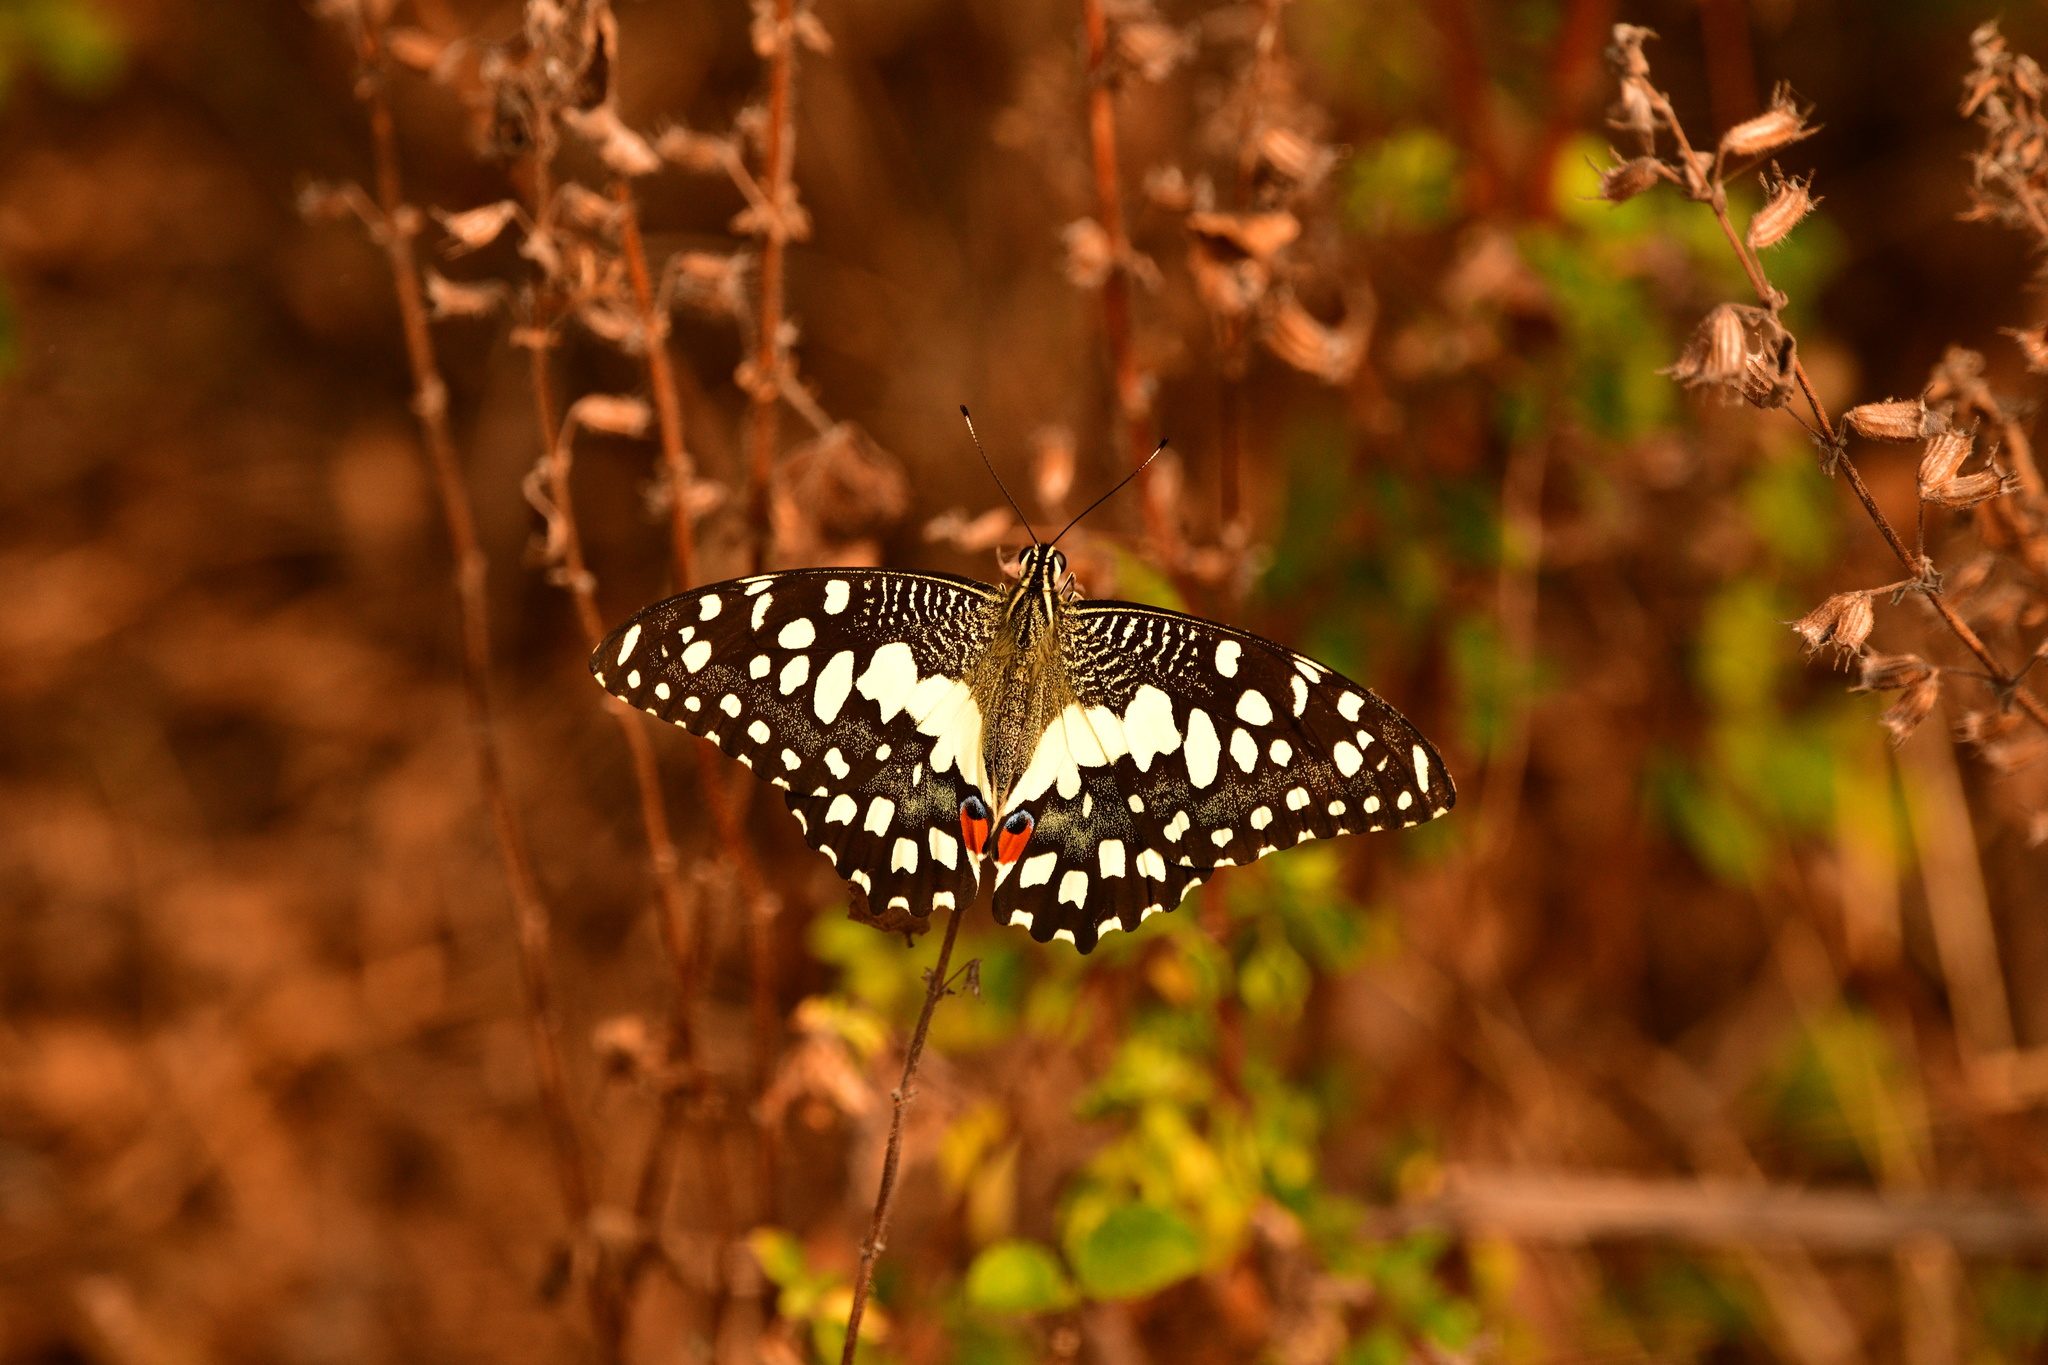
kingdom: Animalia
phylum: Arthropoda
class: Insecta
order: Lepidoptera
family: Papilionidae
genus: Papilio
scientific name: Papilio demoleus
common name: Lime butterfly
